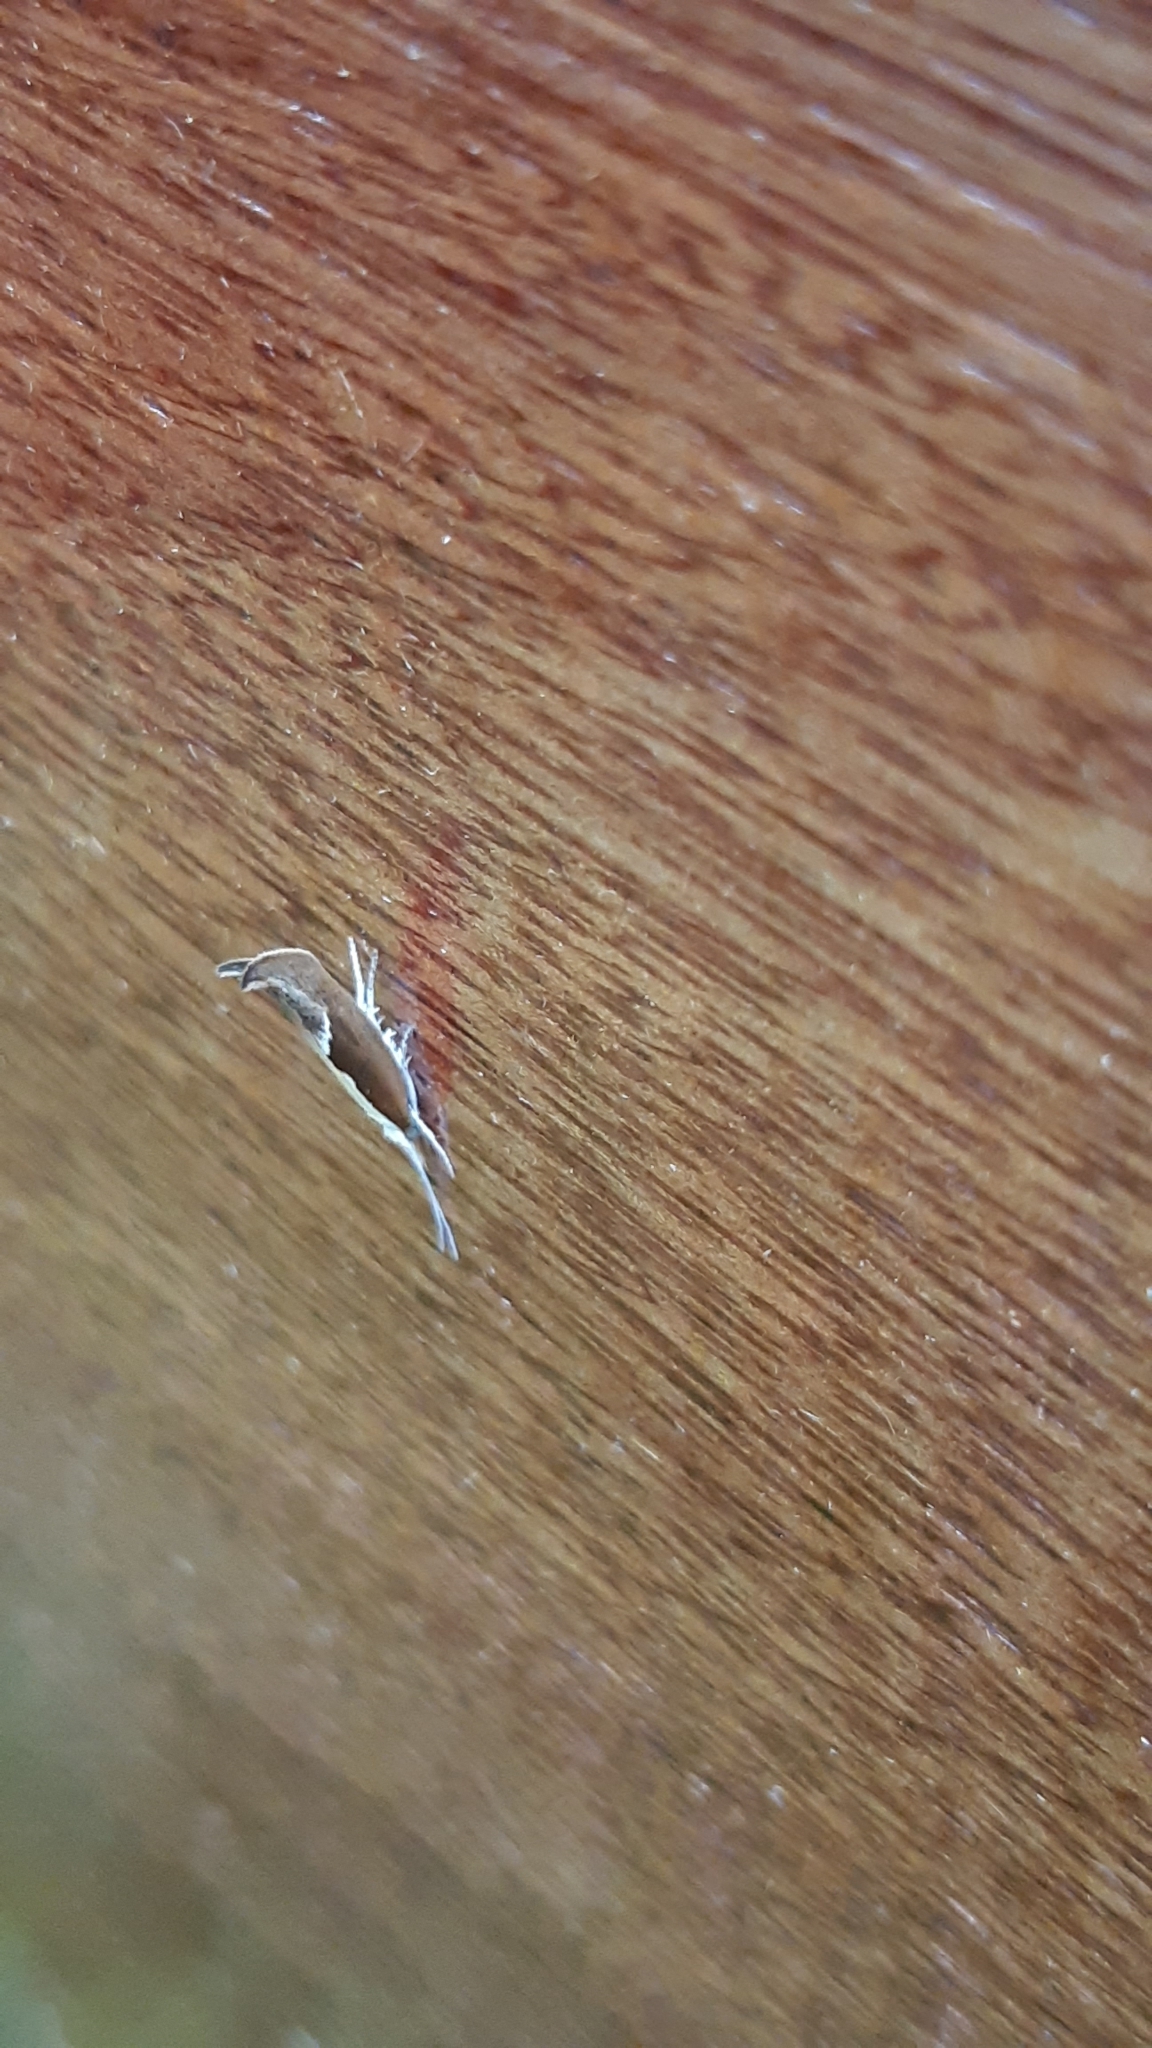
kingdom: Animalia
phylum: Arthropoda
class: Insecta
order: Lepidoptera
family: Ypsolophidae
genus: Ypsolopha
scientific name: Ypsolopha dentella
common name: Honeysuckle moth
